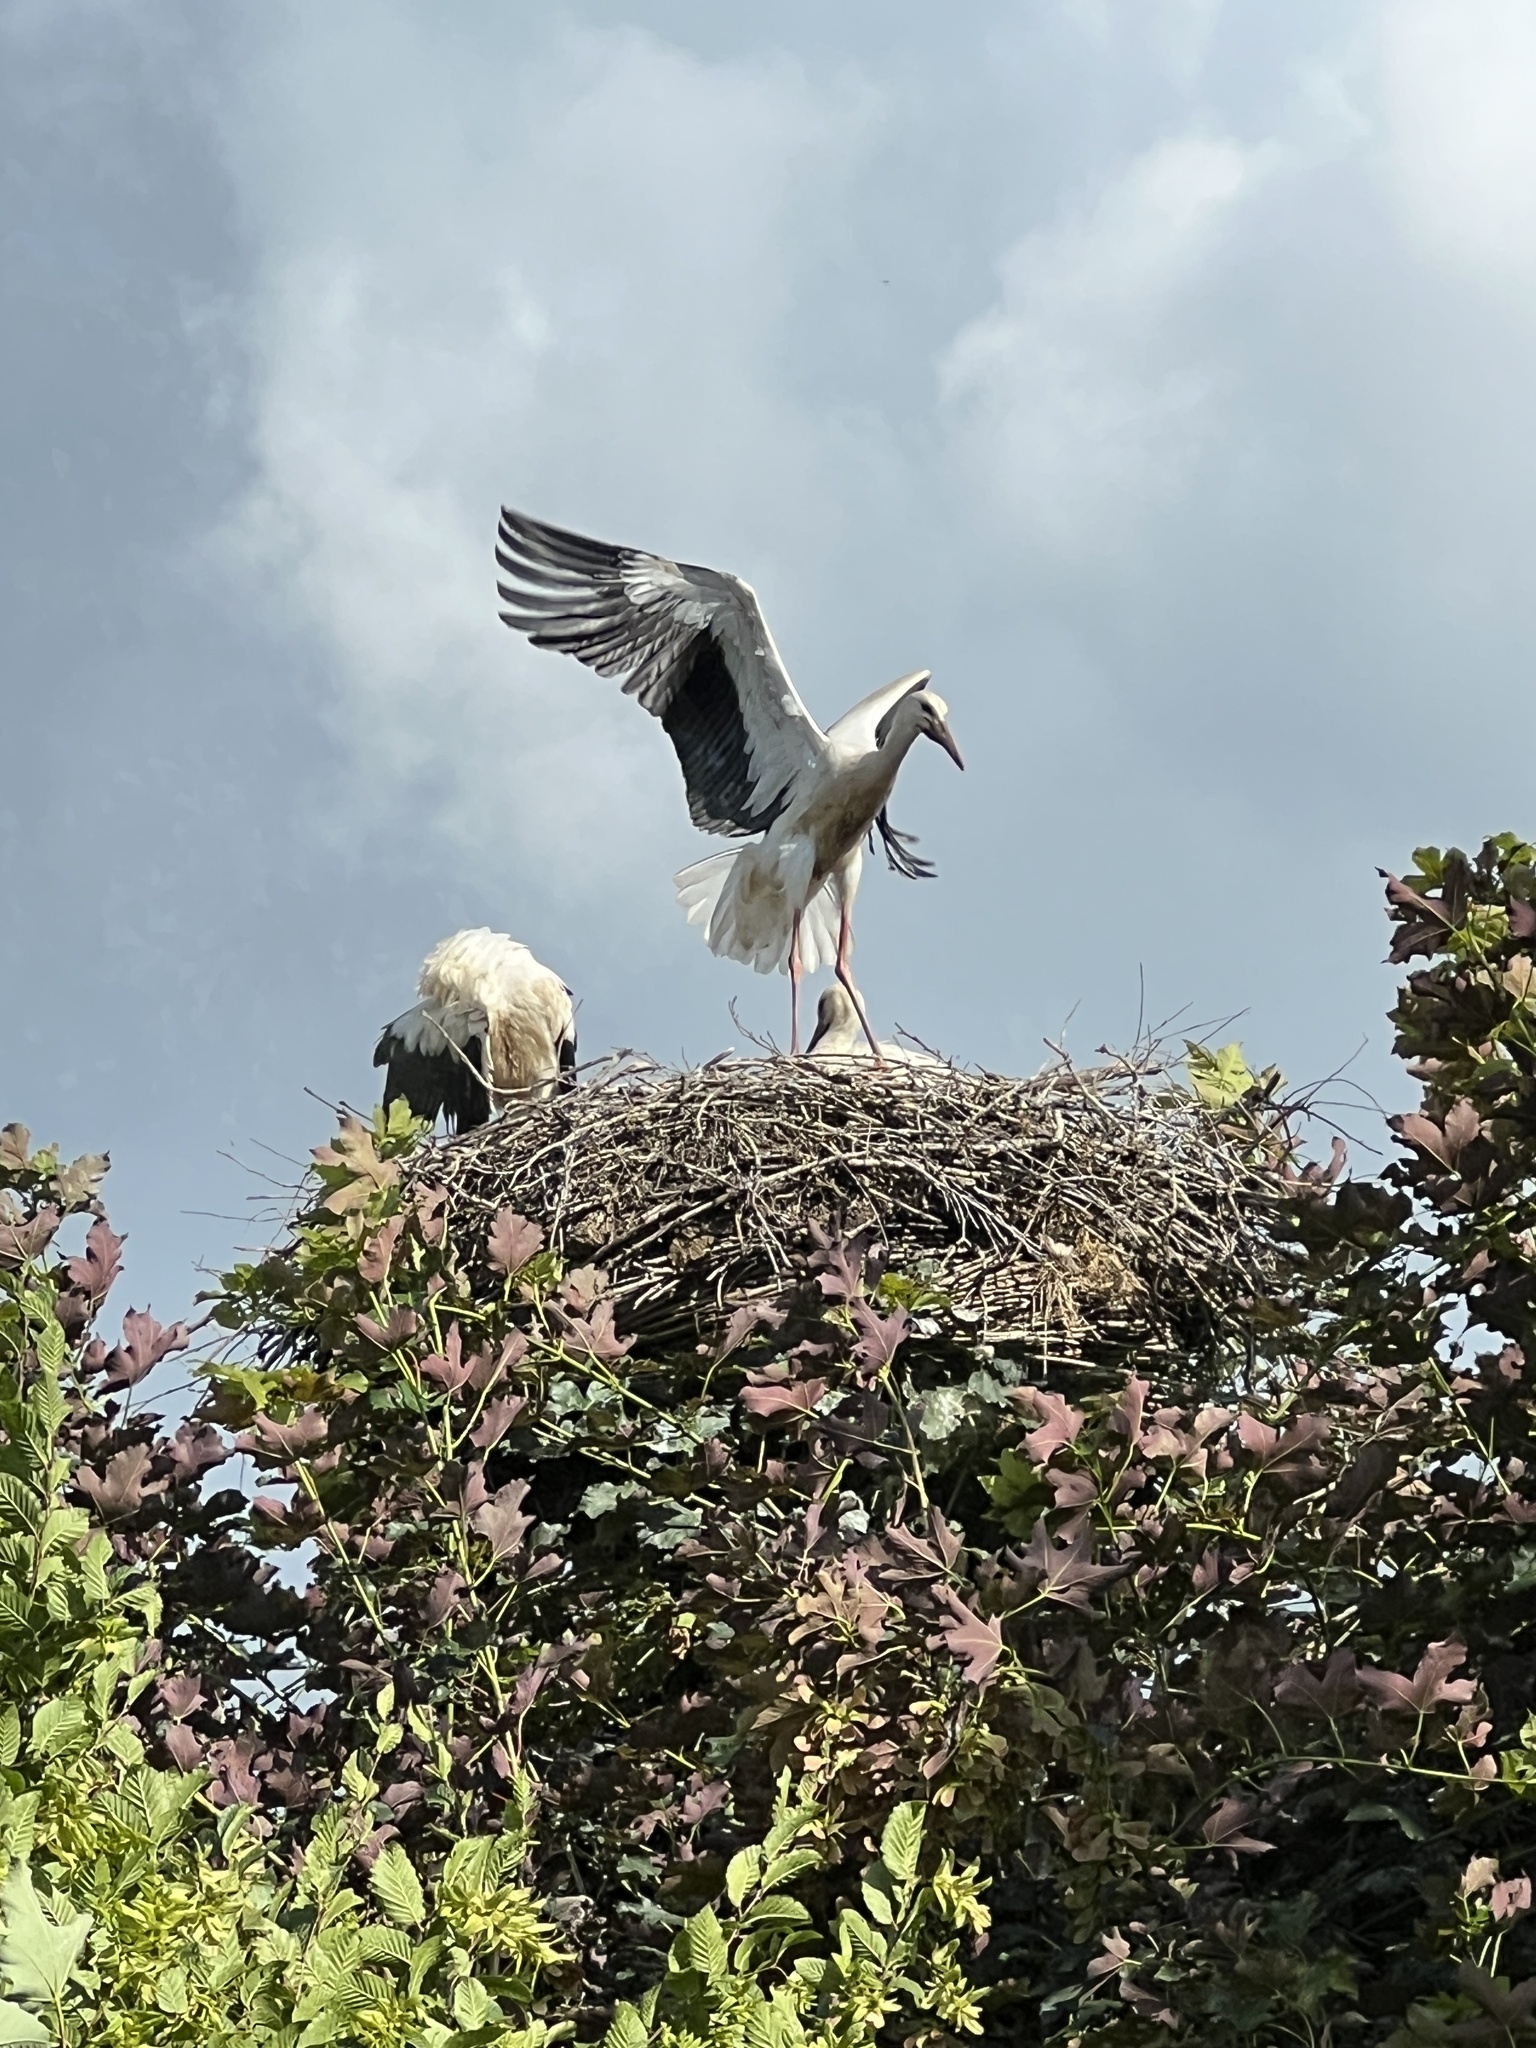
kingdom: Animalia
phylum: Chordata
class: Aves
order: Ciconiiformes
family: Ciconiidae
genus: Ciconia
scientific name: Ciconia ciconia
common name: White stork
